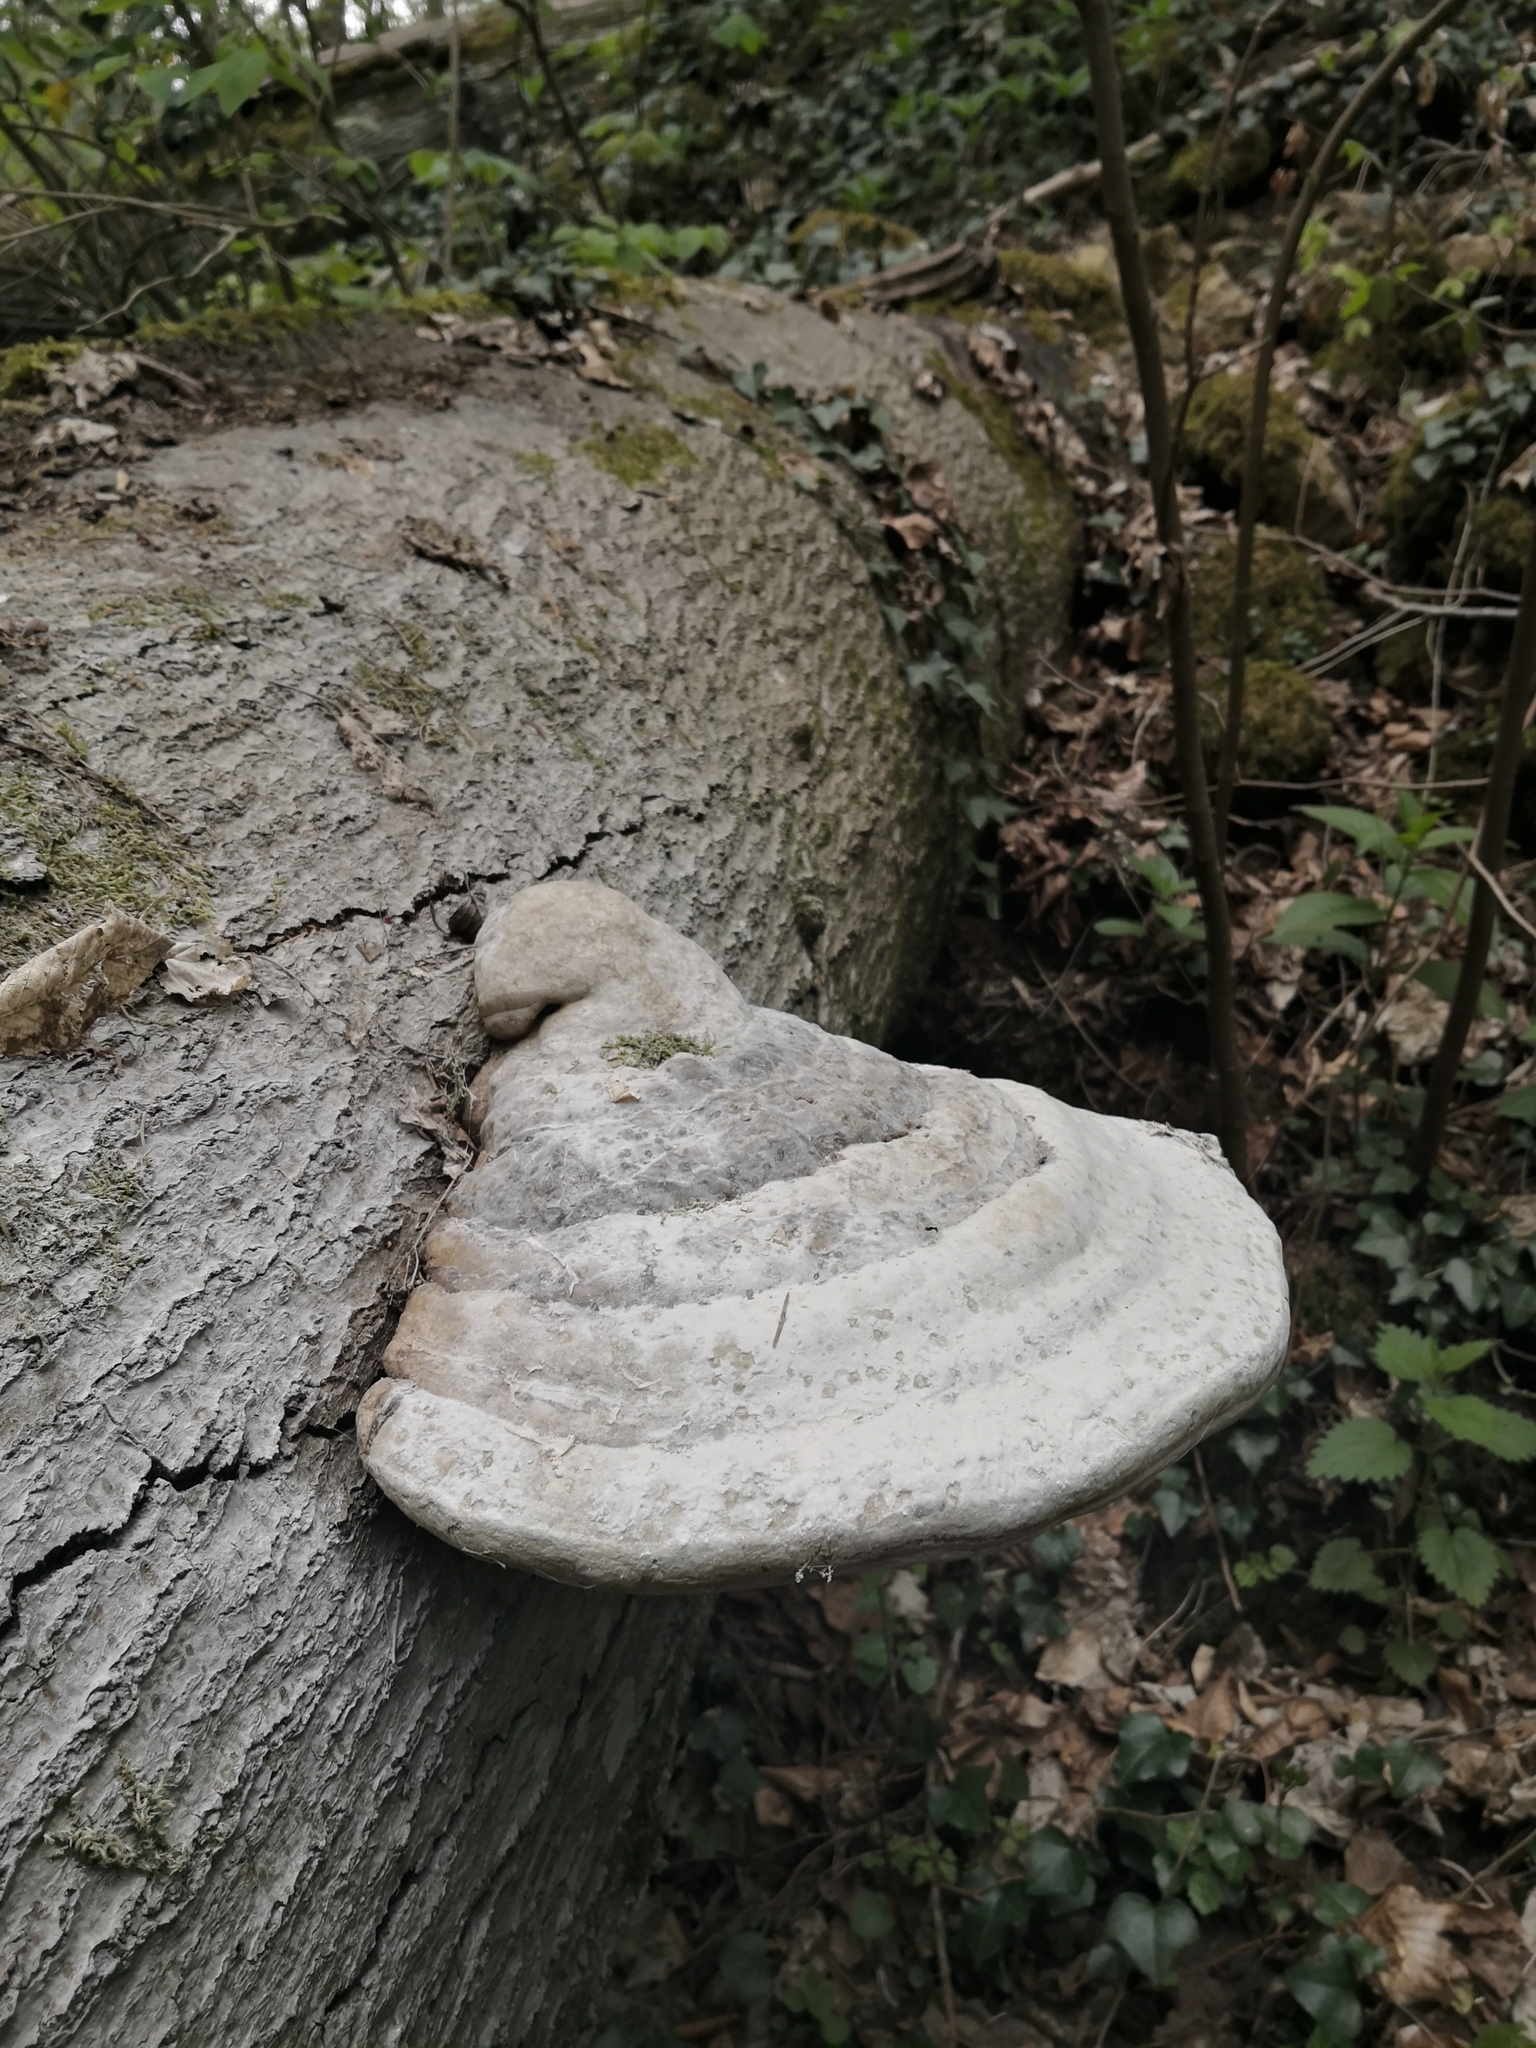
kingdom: Fungi
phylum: Basidiomycota
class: Agaricomycetes
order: Polyporales
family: Polyporaceae
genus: Fomes
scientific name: Fomes fomentarius
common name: Hoof fungus
